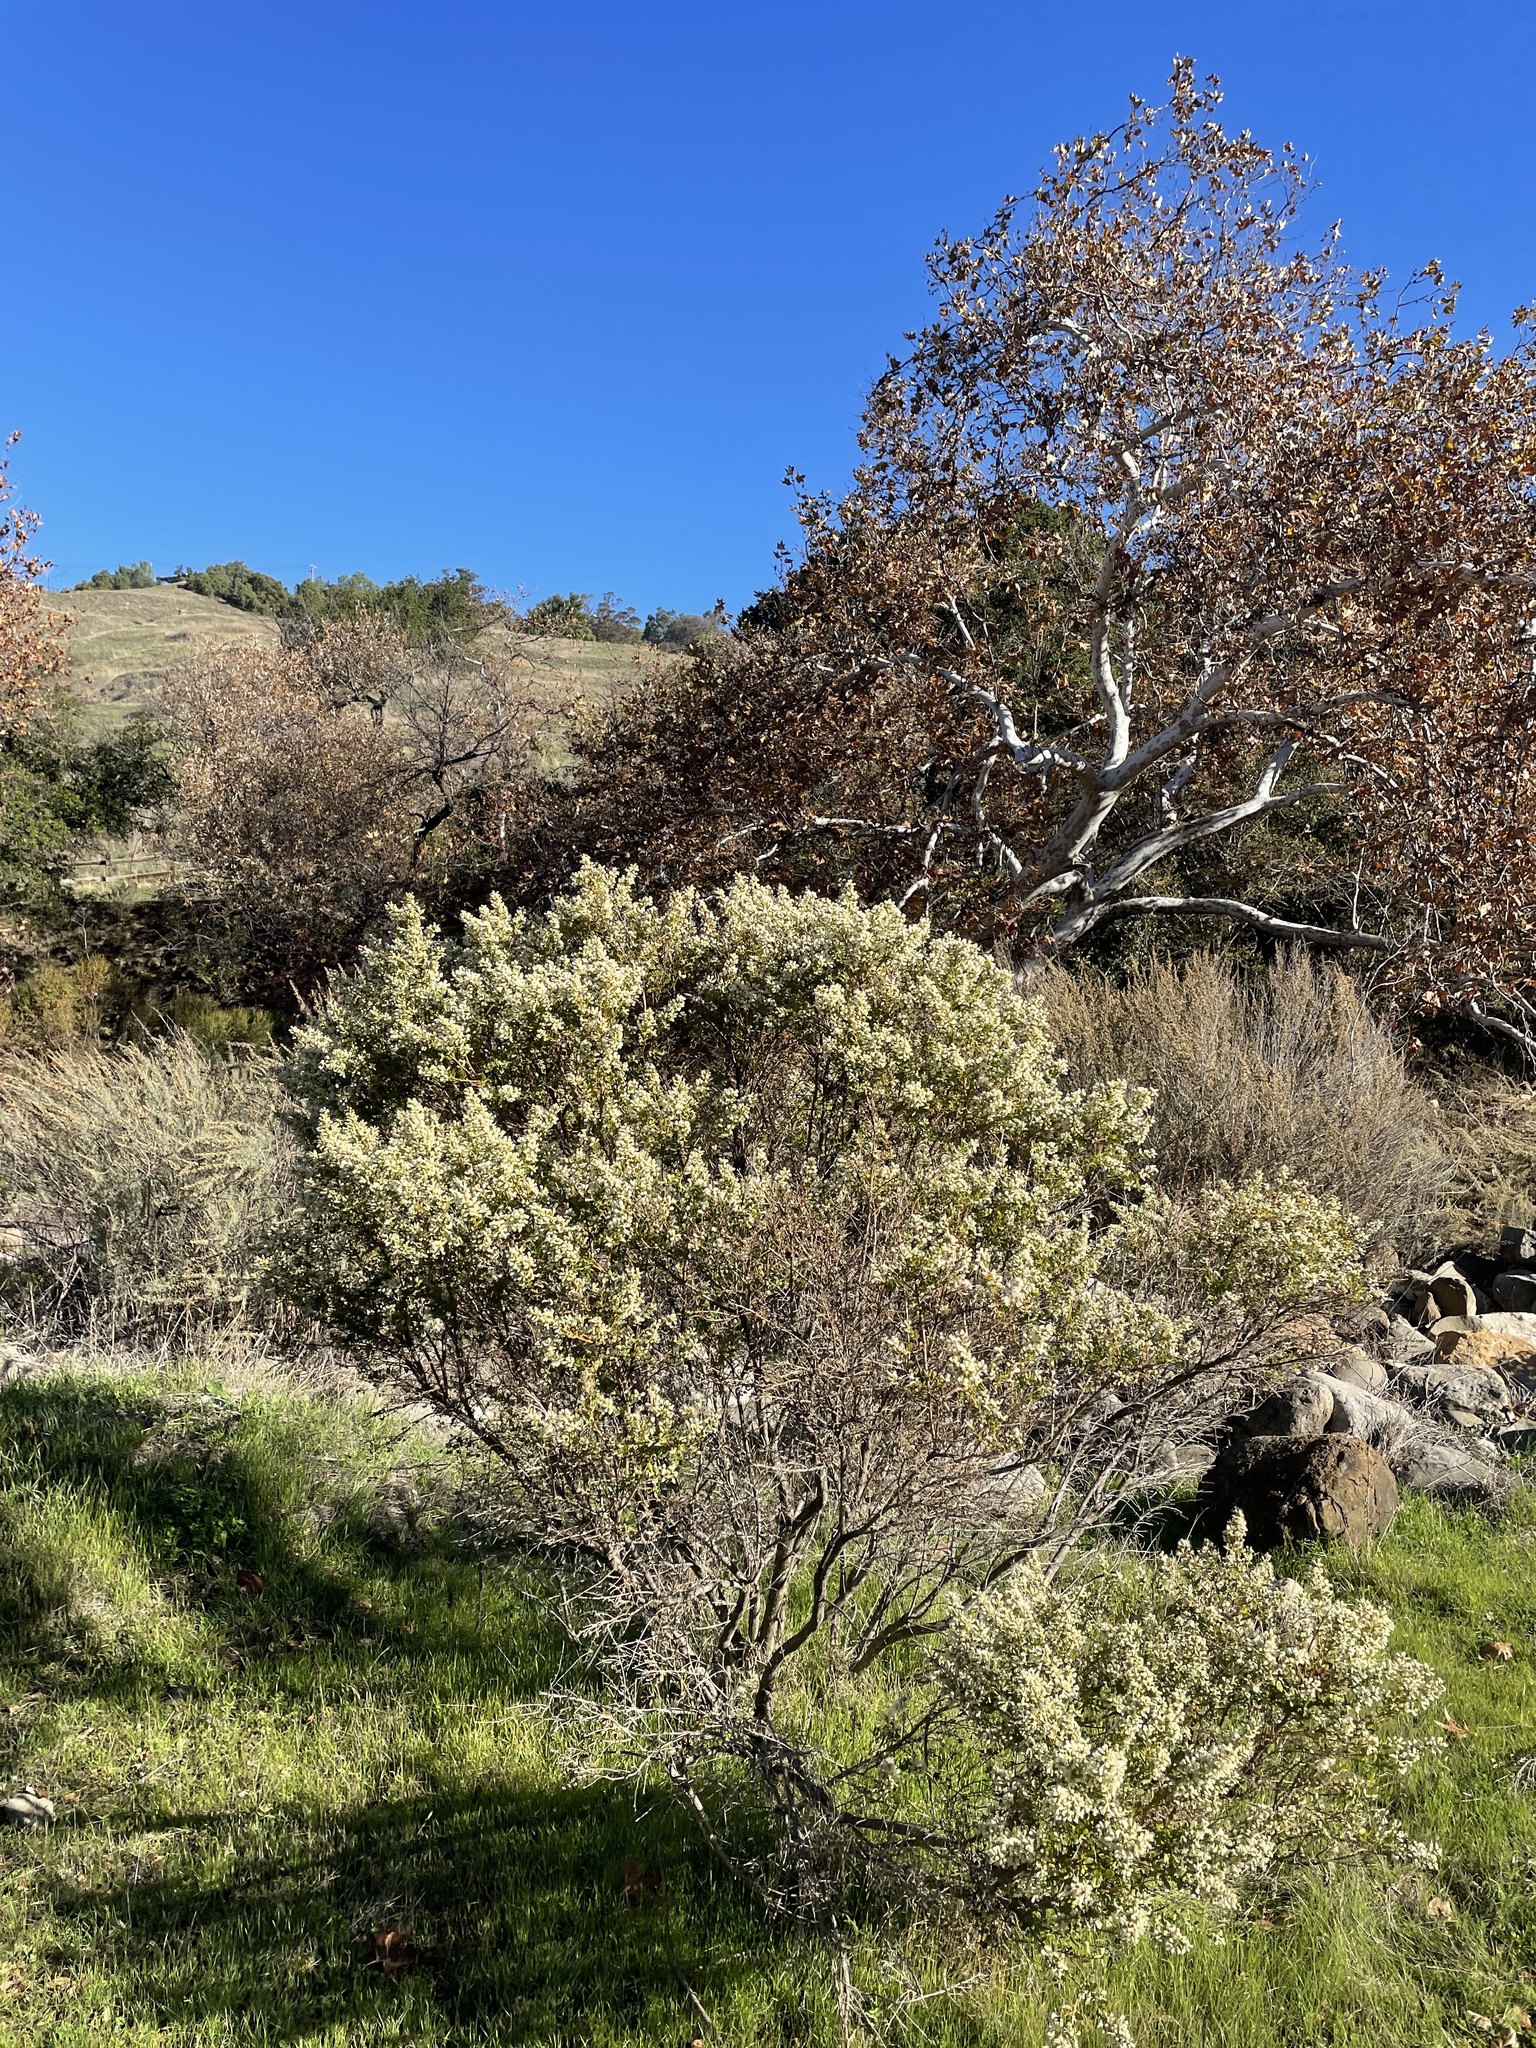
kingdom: Plantae
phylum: Tracheophyta
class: Magnoliopsida
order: Asterales
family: Asteraceae
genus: Baccharis
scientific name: Baccharis pilularis
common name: Coyotebrush
